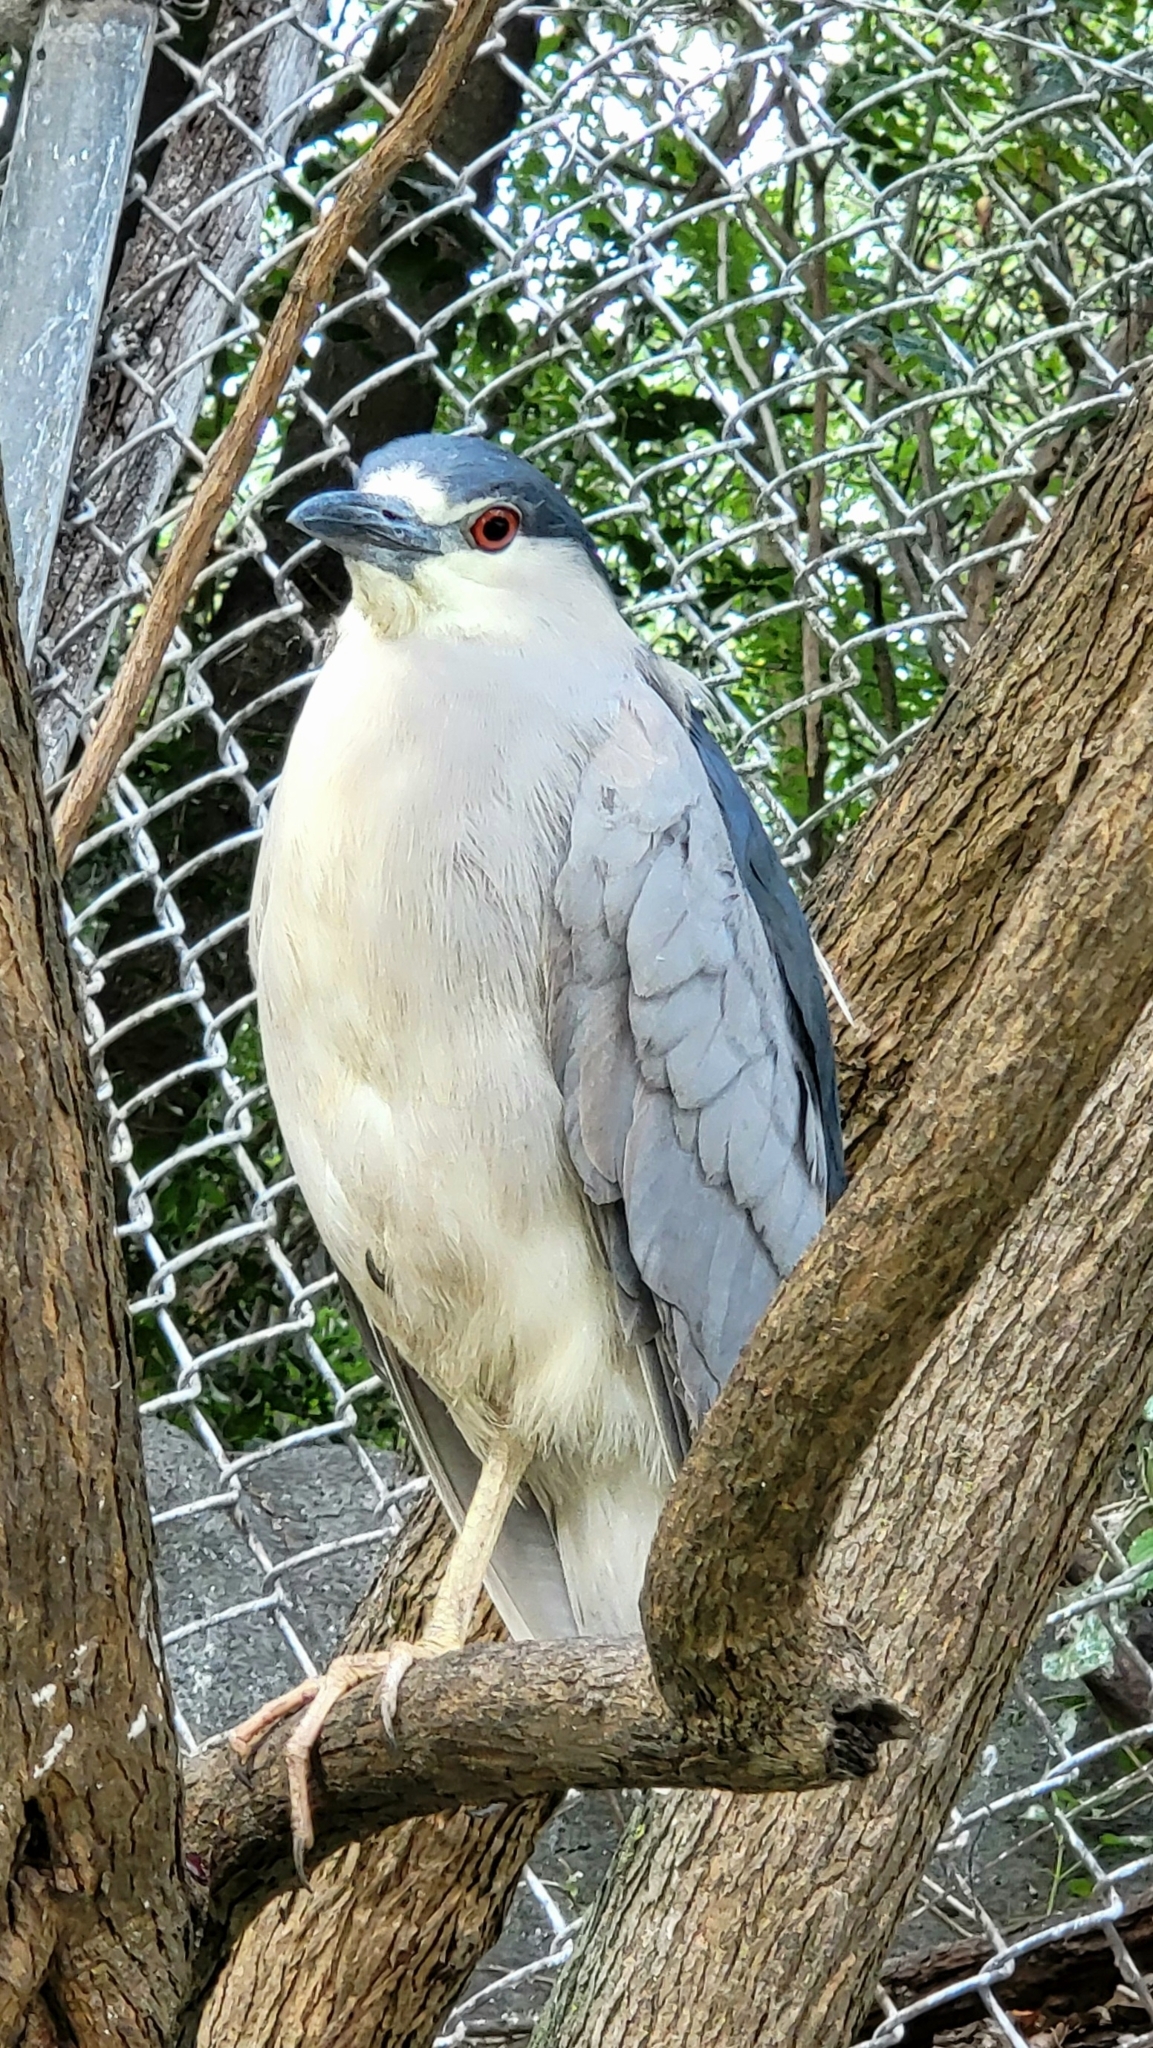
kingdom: Animalia
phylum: Chordata
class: Aves
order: Pelecaniformes
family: Ardeidae
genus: Nycticorax
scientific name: Nycticorax nycticorax
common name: Black-crowned night heron
